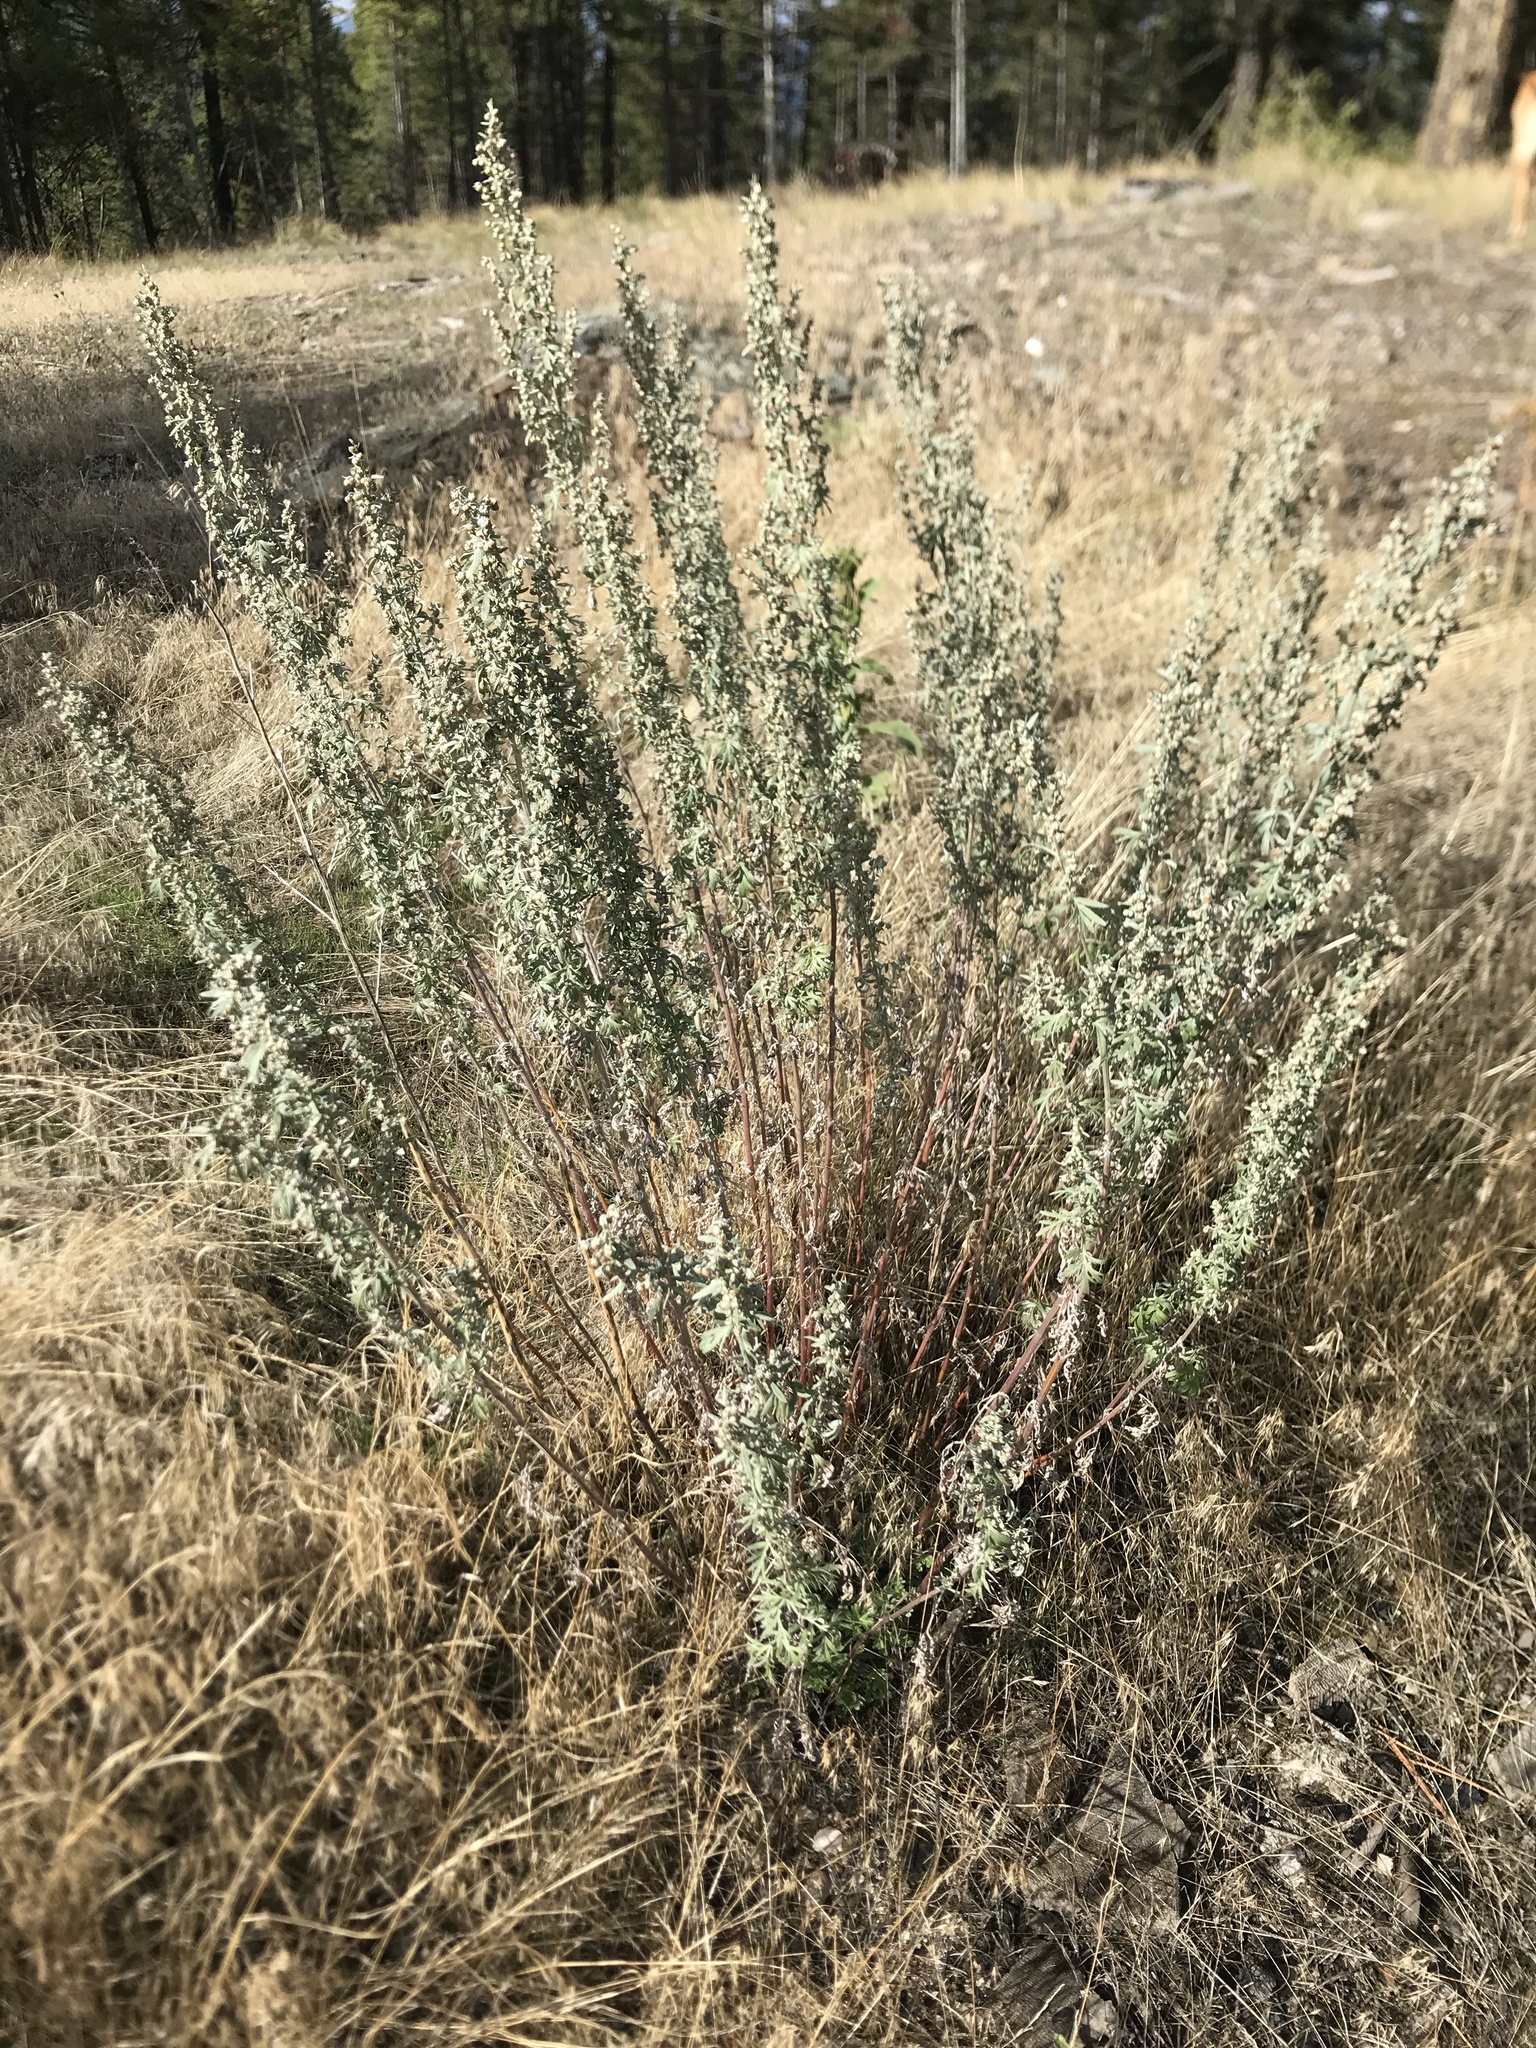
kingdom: Plantae
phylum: Tracheophyta
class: Magnoliopsida
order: Asterales
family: Asteraceae
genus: Artemisia
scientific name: Artemisia absinthium
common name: Wormwood
